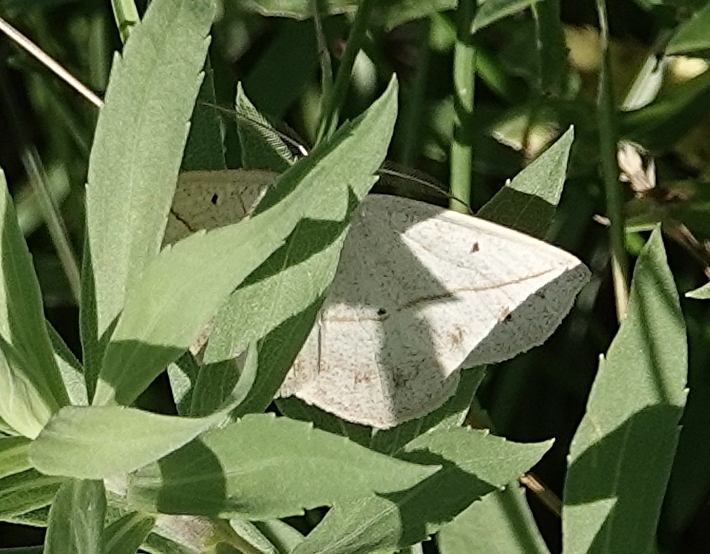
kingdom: Animalia
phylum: Arthropoda
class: Insecta
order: Lepidoptera
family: Geometridae
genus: Eusarca
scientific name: Eusarca confusaria
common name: Confused eusarca
